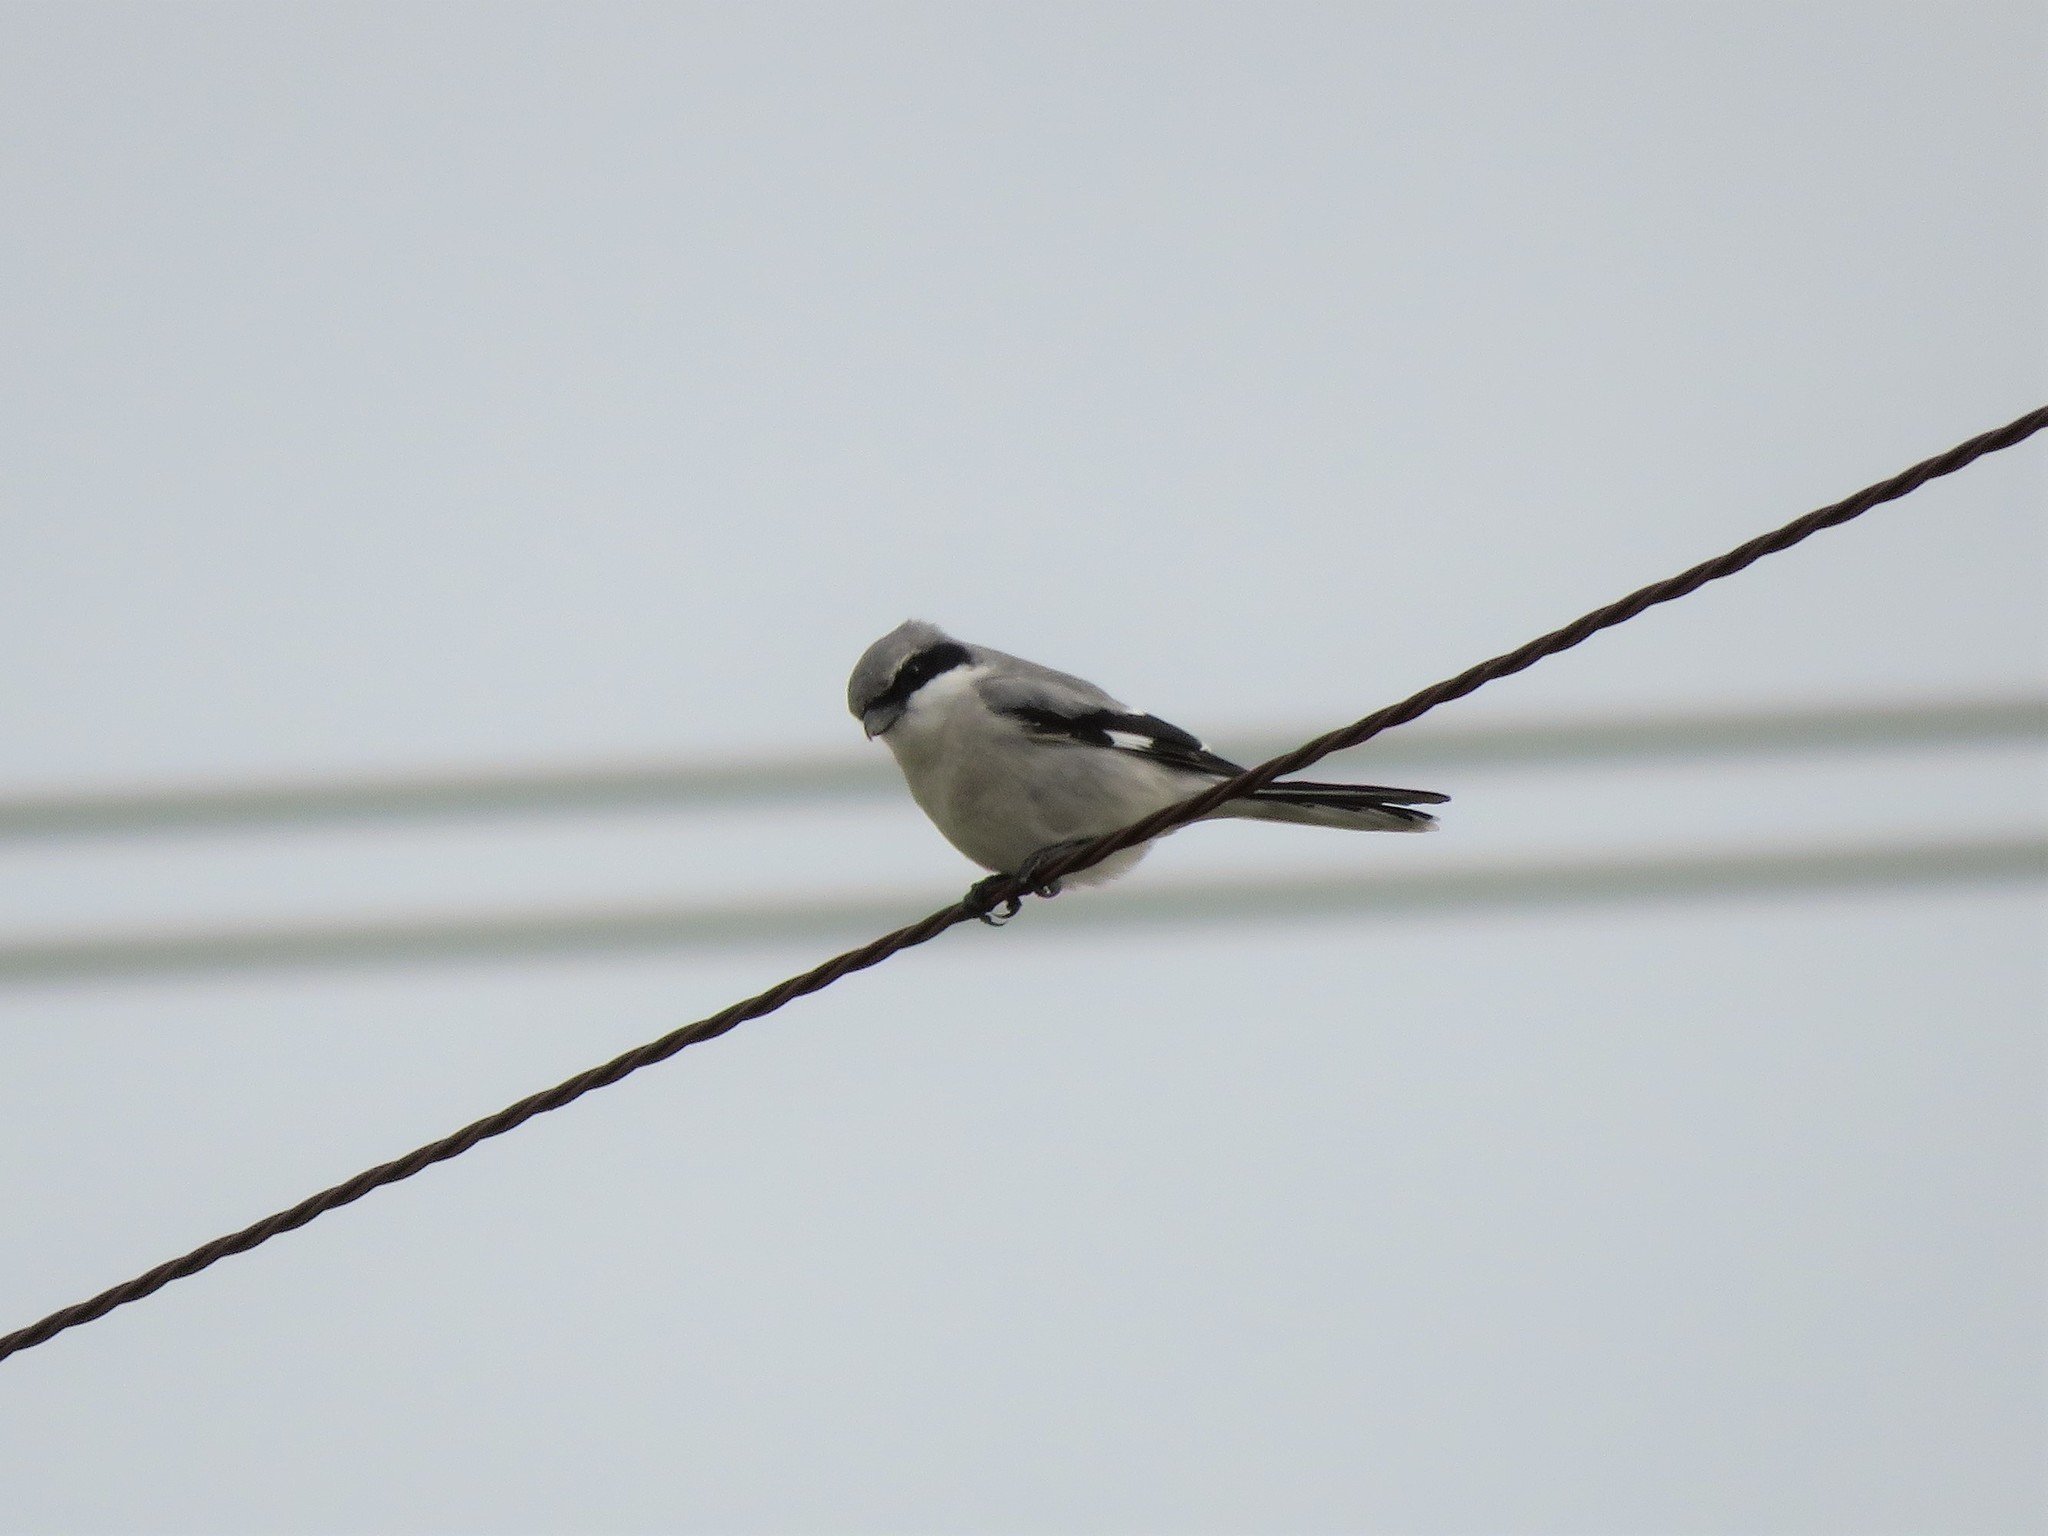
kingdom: Animalia
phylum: Chordata
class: Aves
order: Passeriformes
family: Laniidae
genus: Lanius
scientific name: Lanius ludovicianus
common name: Loggerhead shrike
